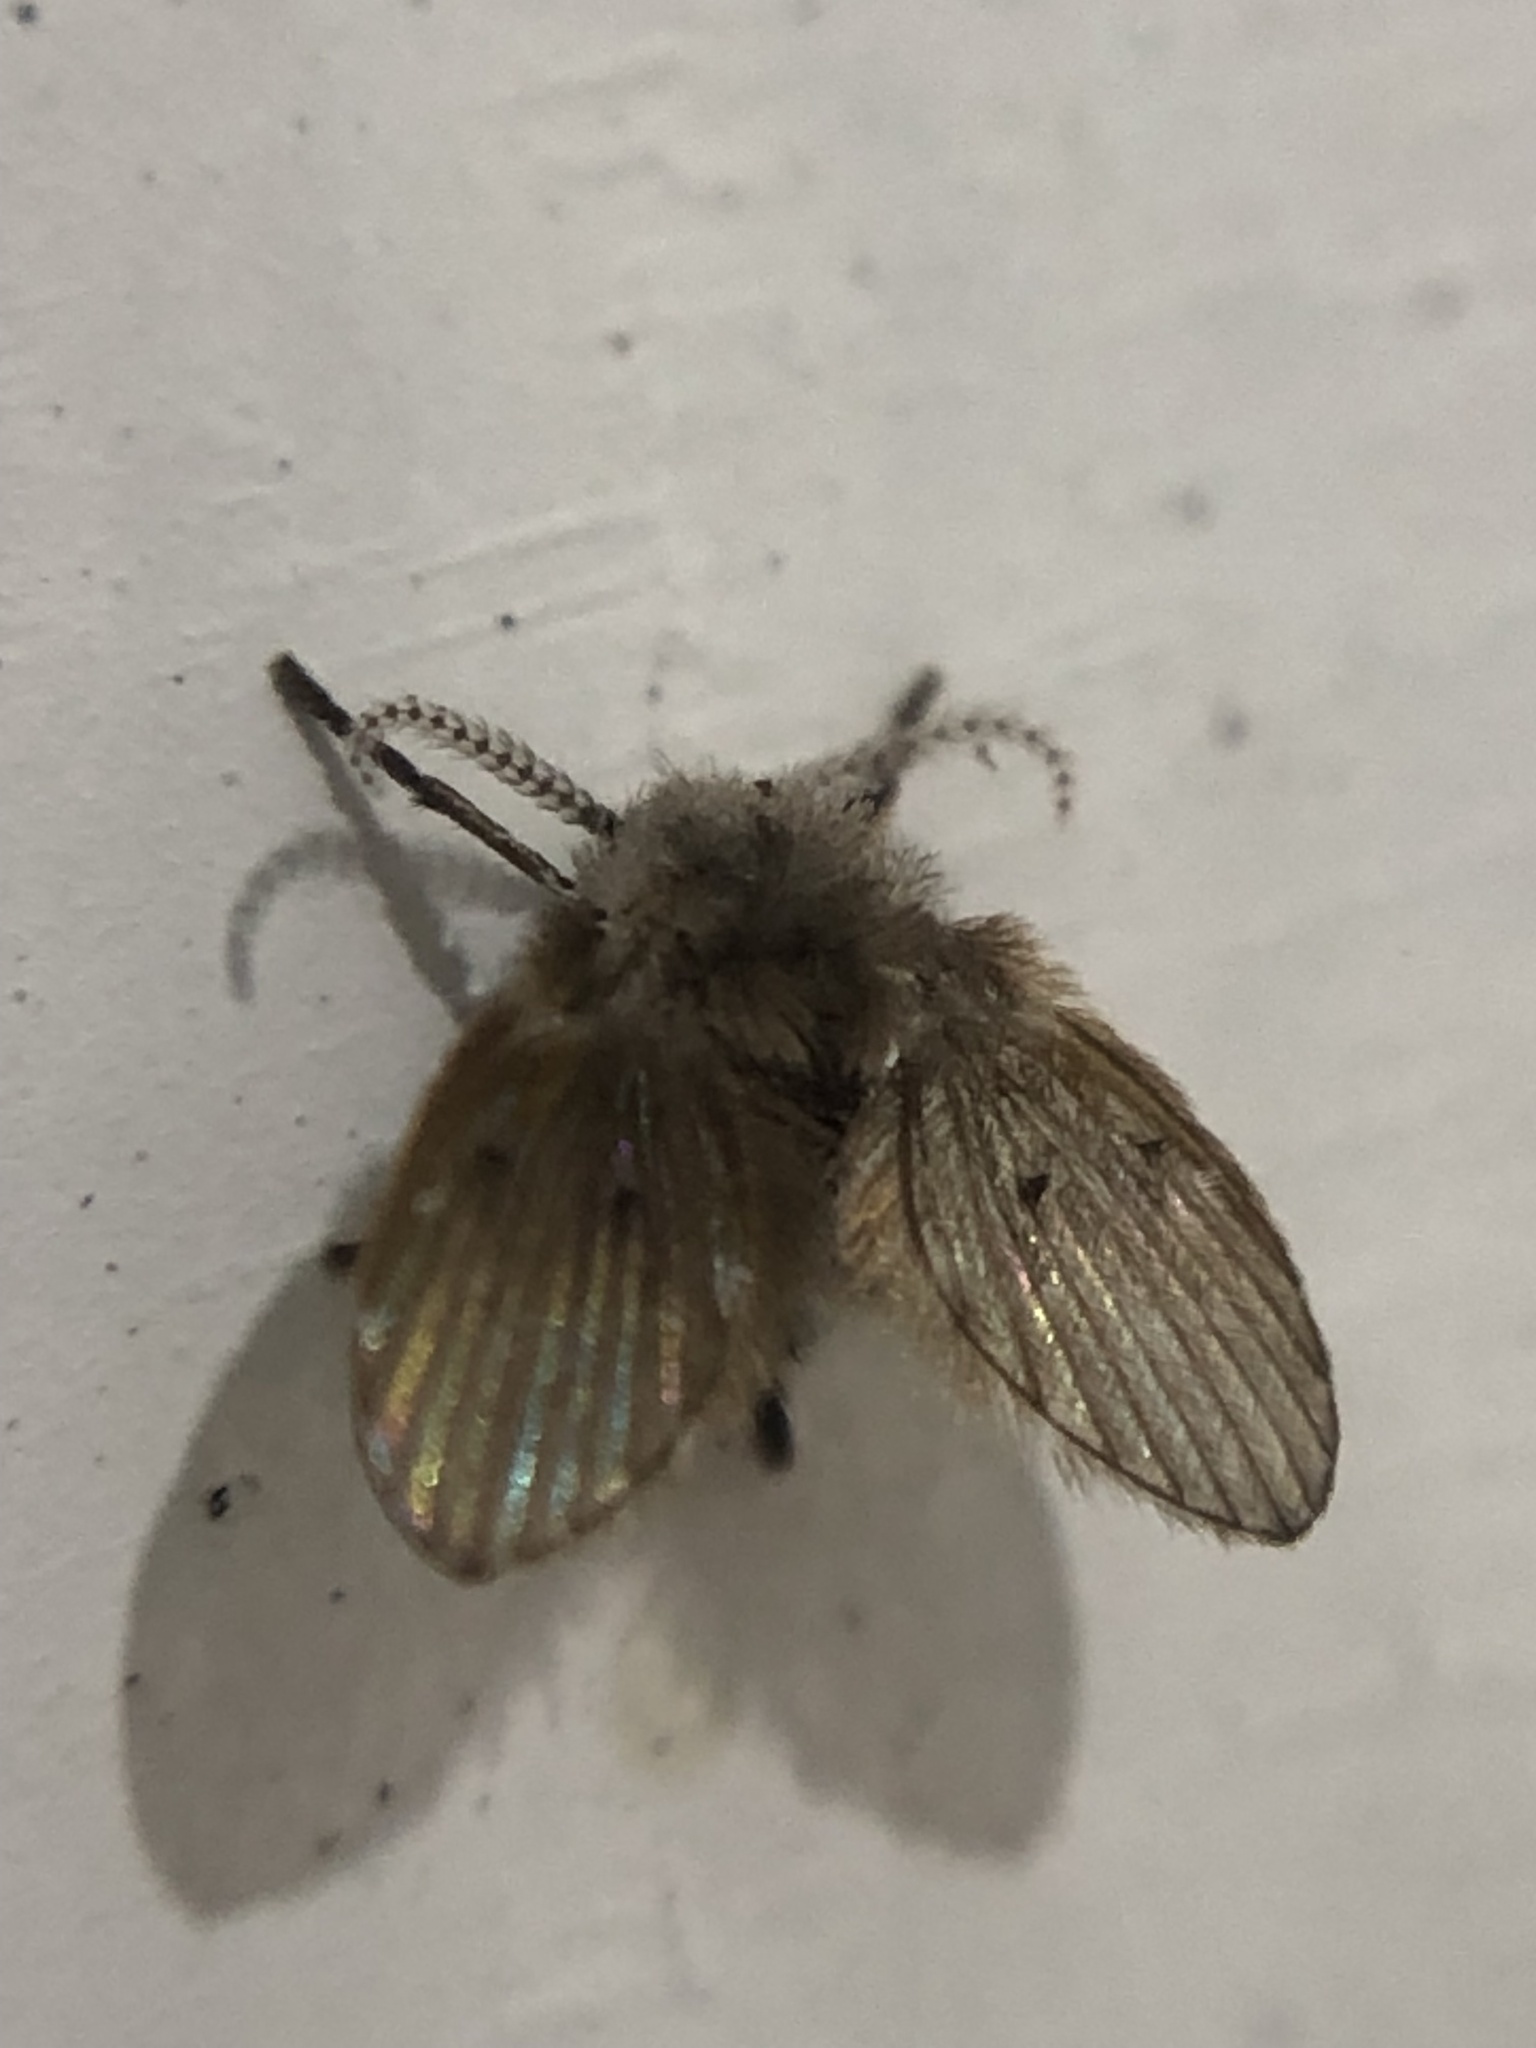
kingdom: Animalia
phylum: Arthropoda
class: Insecta
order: Diptera
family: Psychodidae
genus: Clogmia
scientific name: Clogmia albipunctatus
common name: White-spotted moth fly
